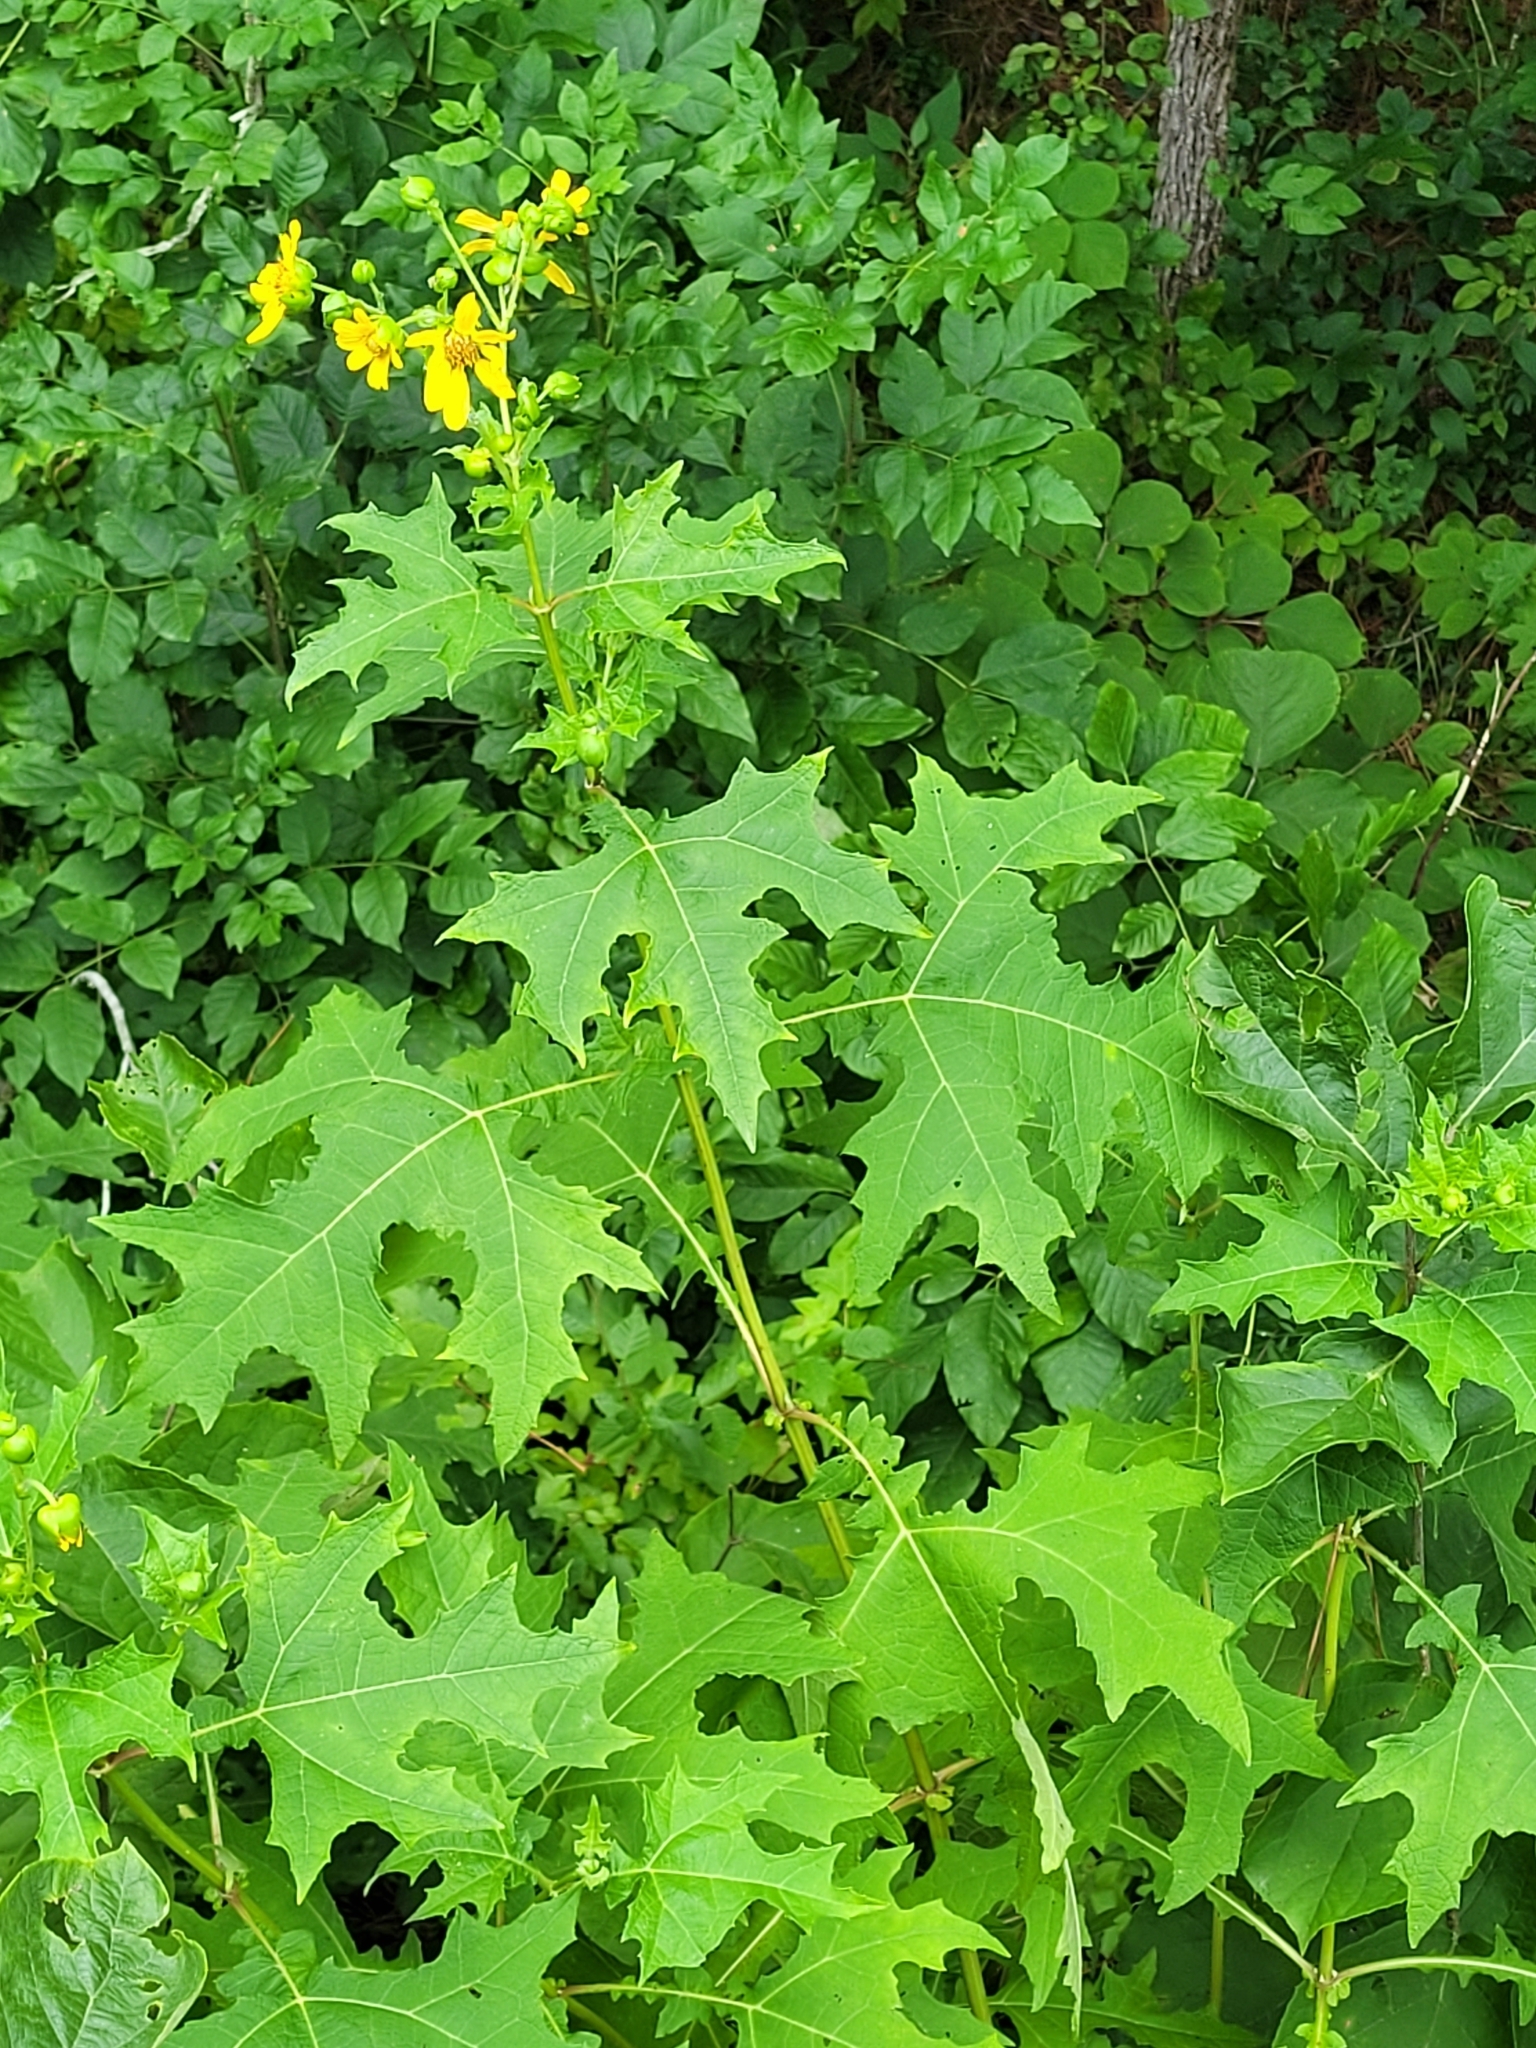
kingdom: Plantae
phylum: Tracheophyta
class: Magnoliopsida
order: Asterales
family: Asteraceae
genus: Smallanthus
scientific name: Smallanthus uvedalia
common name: Bear's-foot
